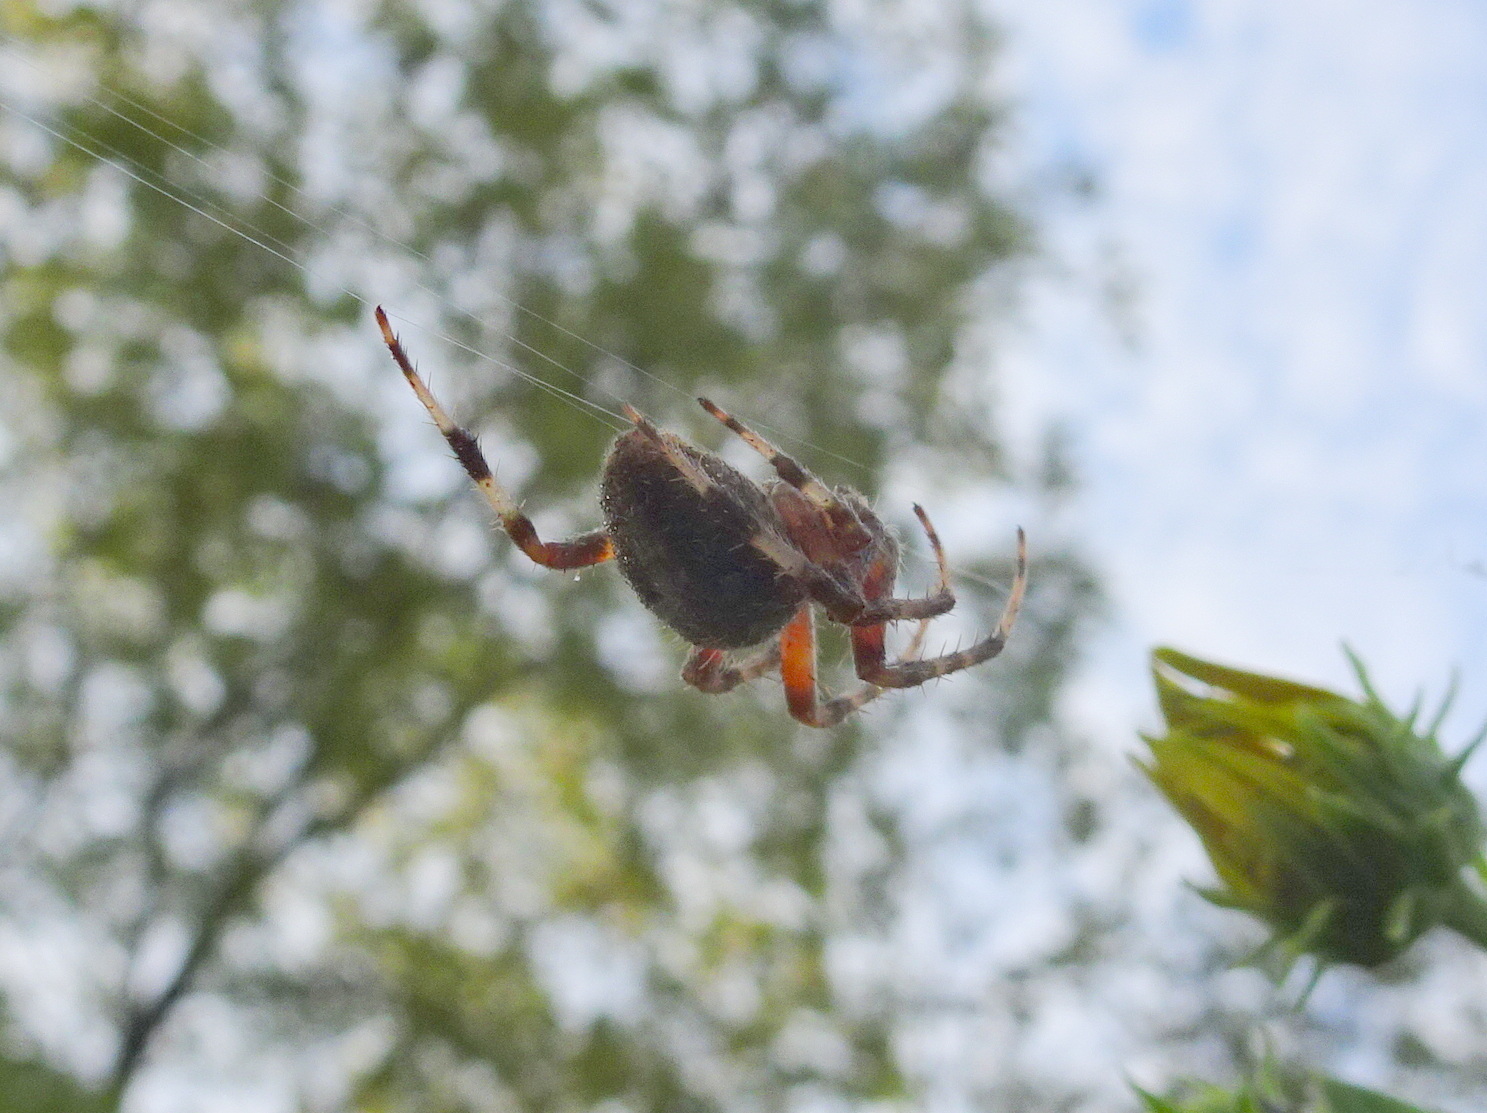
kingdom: Animalia
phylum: Arthropoda
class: Arachnida
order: Araneae
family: Araneidae
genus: Neoscona
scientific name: Neoscona crucifera
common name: Spotted orbweaver
